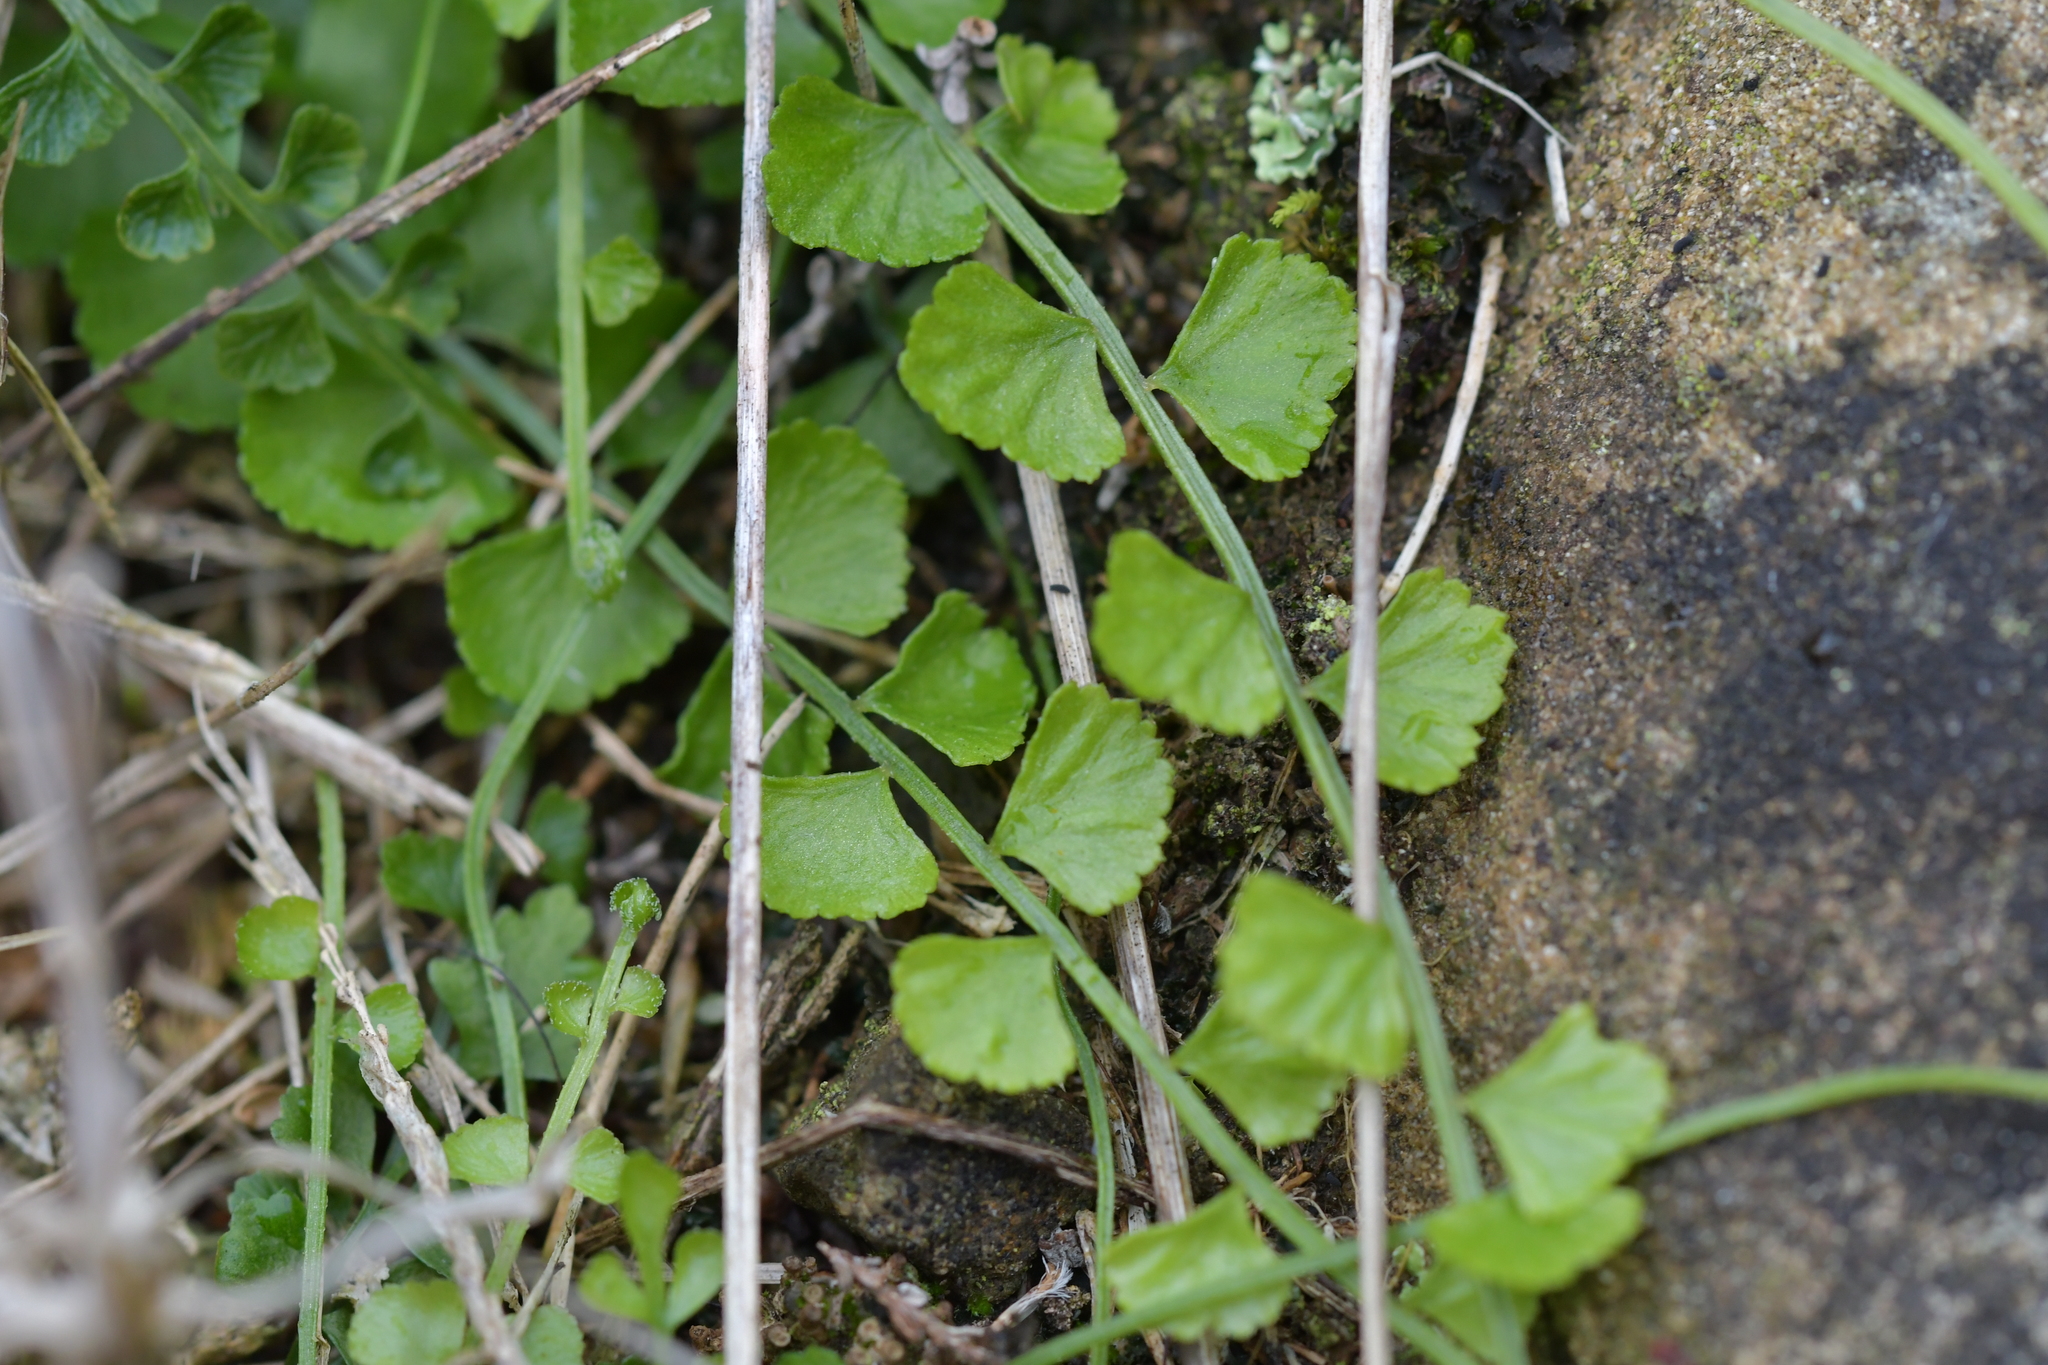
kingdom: Plantae
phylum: Tracheophyta
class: Polypodiopsida
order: Polypodiales
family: Aspleniaceae
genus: Asplenium
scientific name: Asplenium flabellifolium
